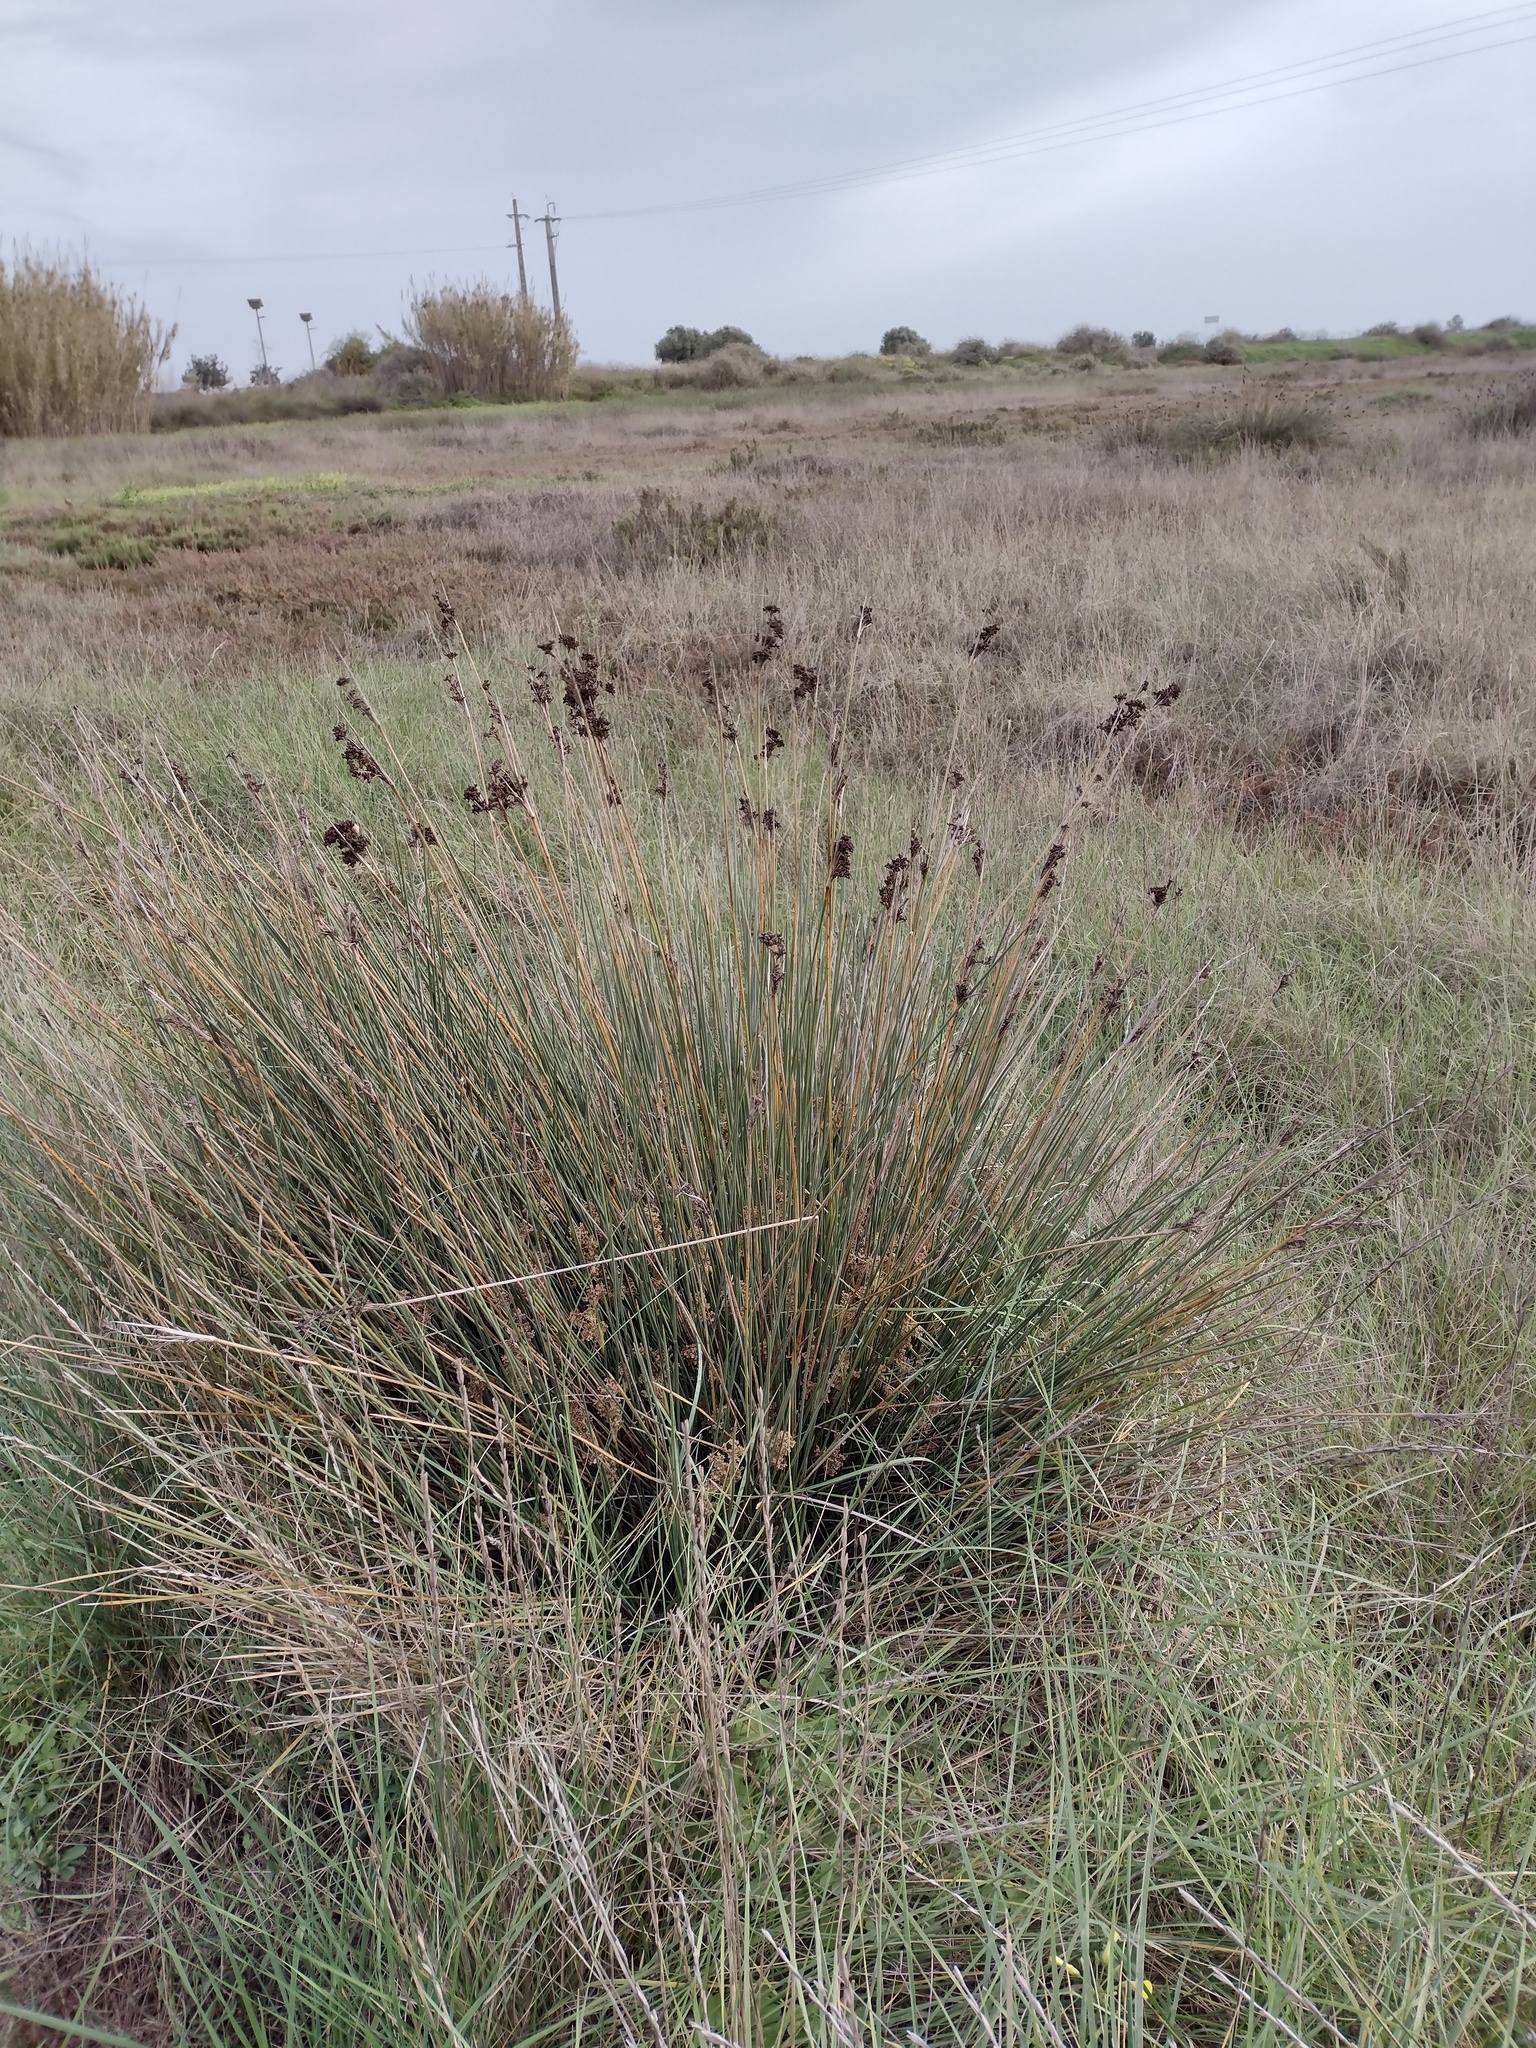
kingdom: Plantae
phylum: Tracheophyta
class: Liliopsida
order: Poales
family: Juncaceae
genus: Juncus
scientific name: Juncus acutus
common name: Sharp rush
